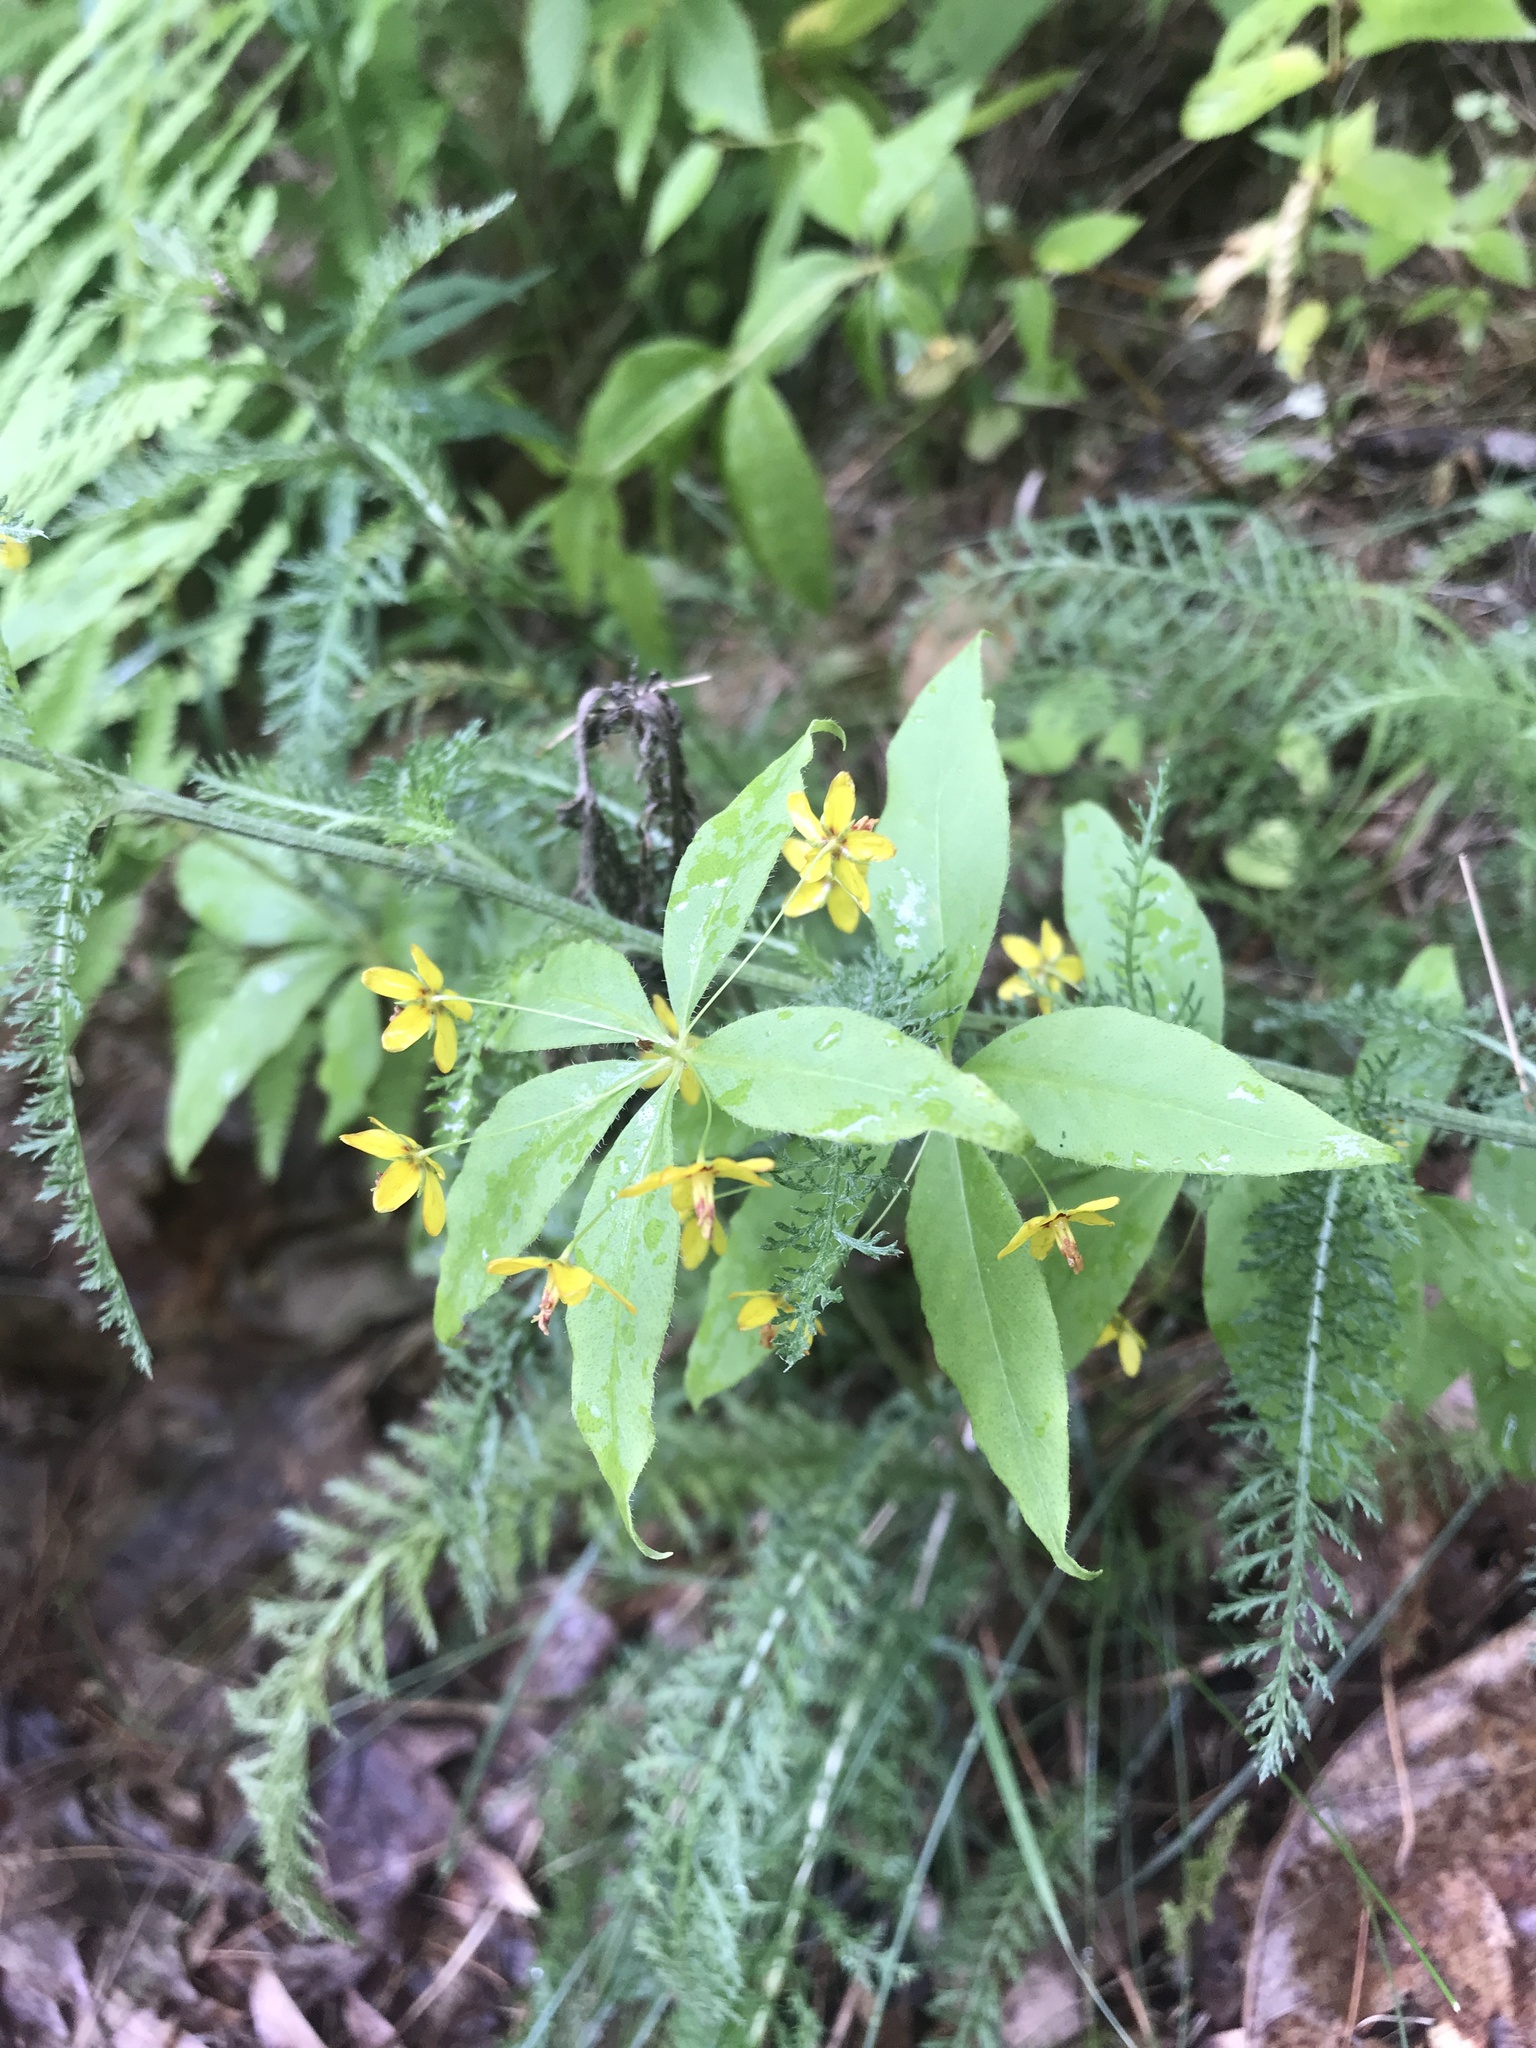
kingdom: Plantae
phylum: Tracheophyta
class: Magnoliopsida
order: Ericales
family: Primulaceae
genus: Lysimachia
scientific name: Lysimachia quadrifolia
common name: Whorled loosestrife
